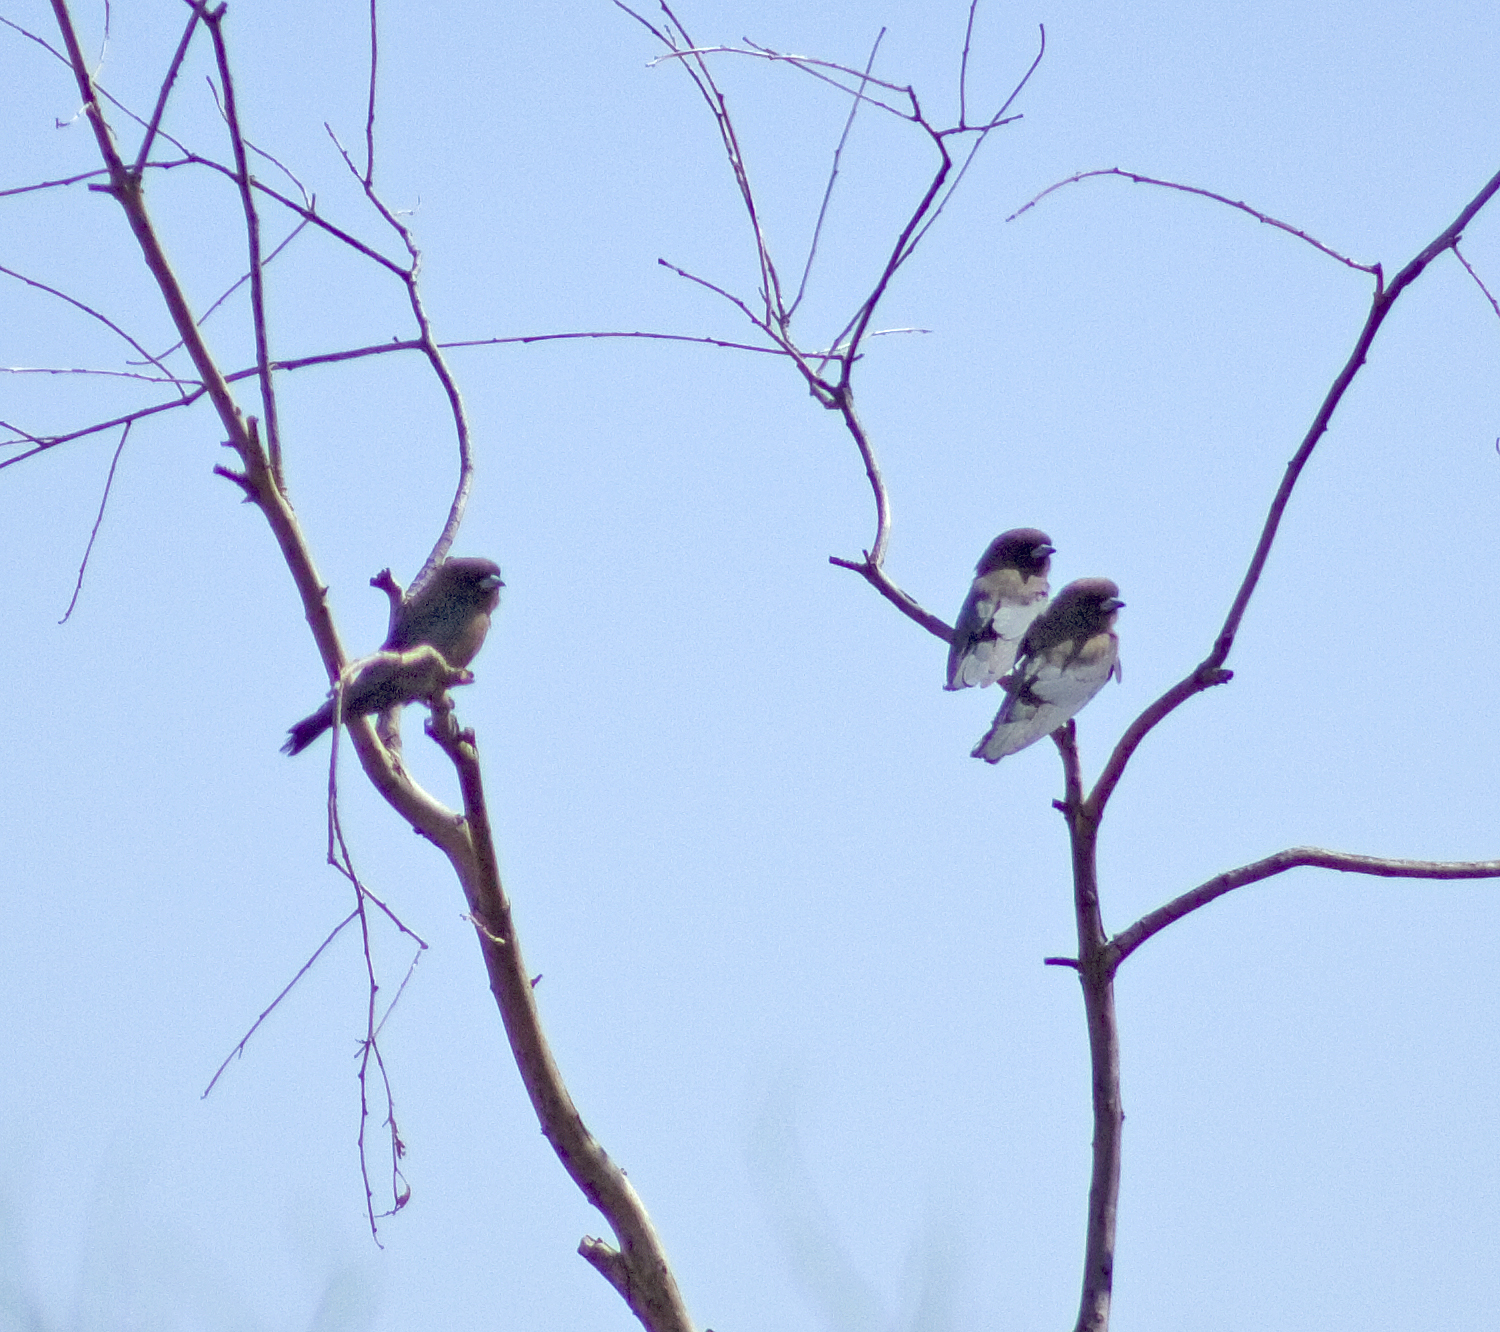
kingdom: Animalia
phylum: Chordata
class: Aves
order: Passeriformes
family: Artamidae
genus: Artamus
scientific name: Artamus minor
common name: Little woodswallow
